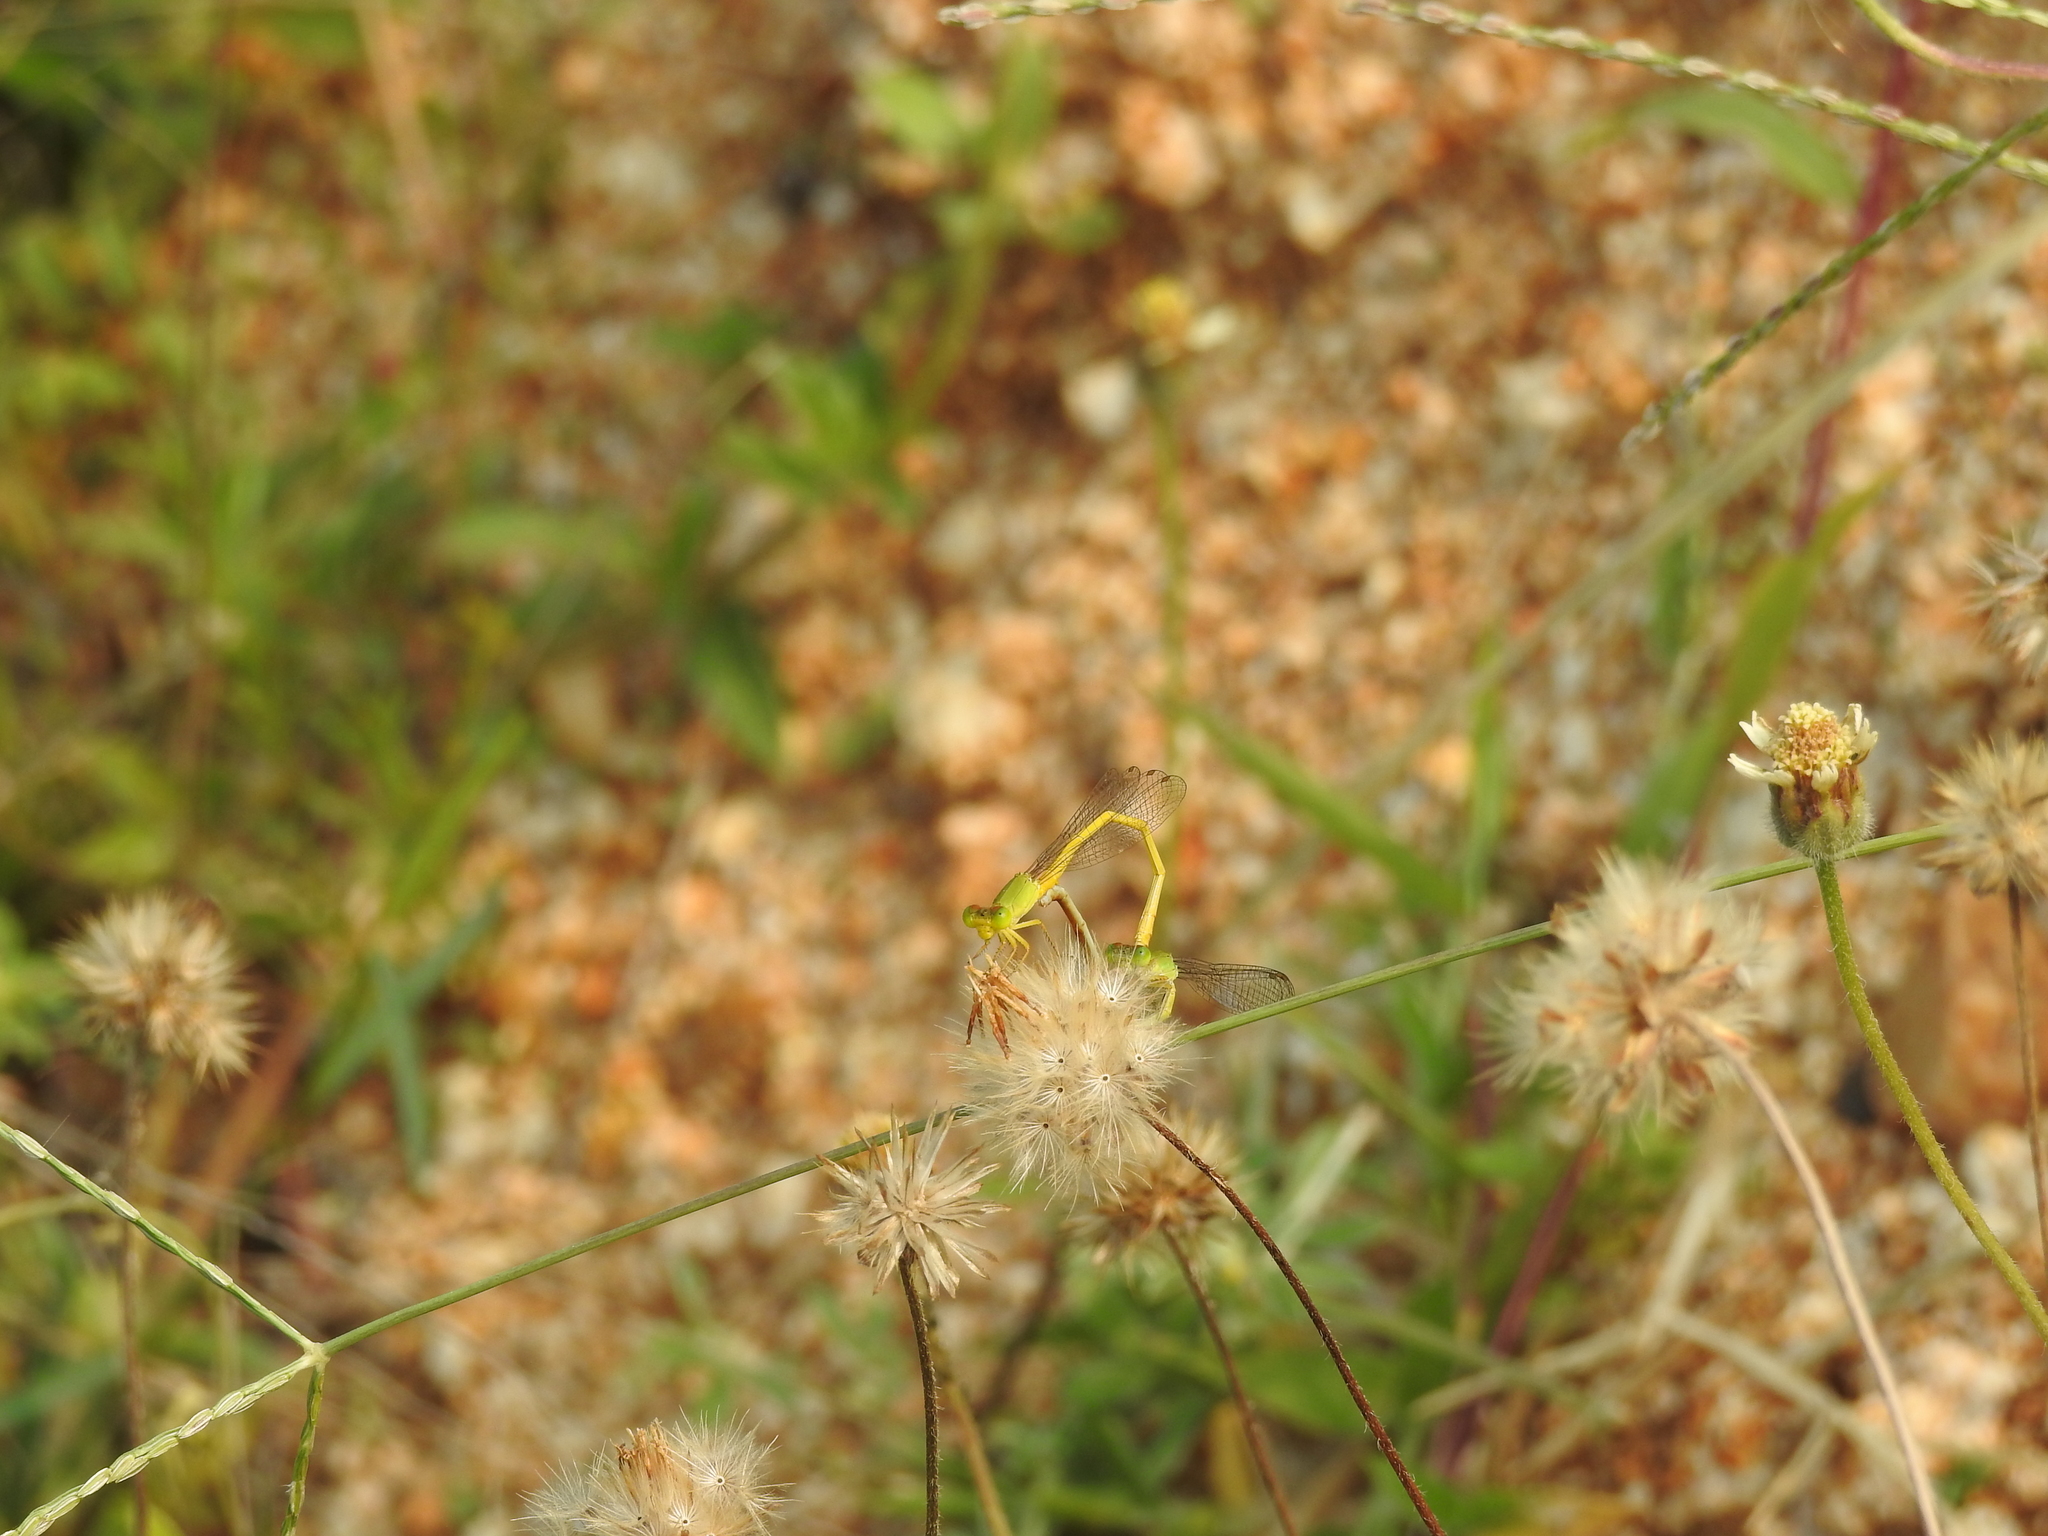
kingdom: Animalia
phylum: Arthropoda
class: Insecta
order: Odonata
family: Coenagrionidae
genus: Ceriagrion
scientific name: Ceriagrion coromandelianum
